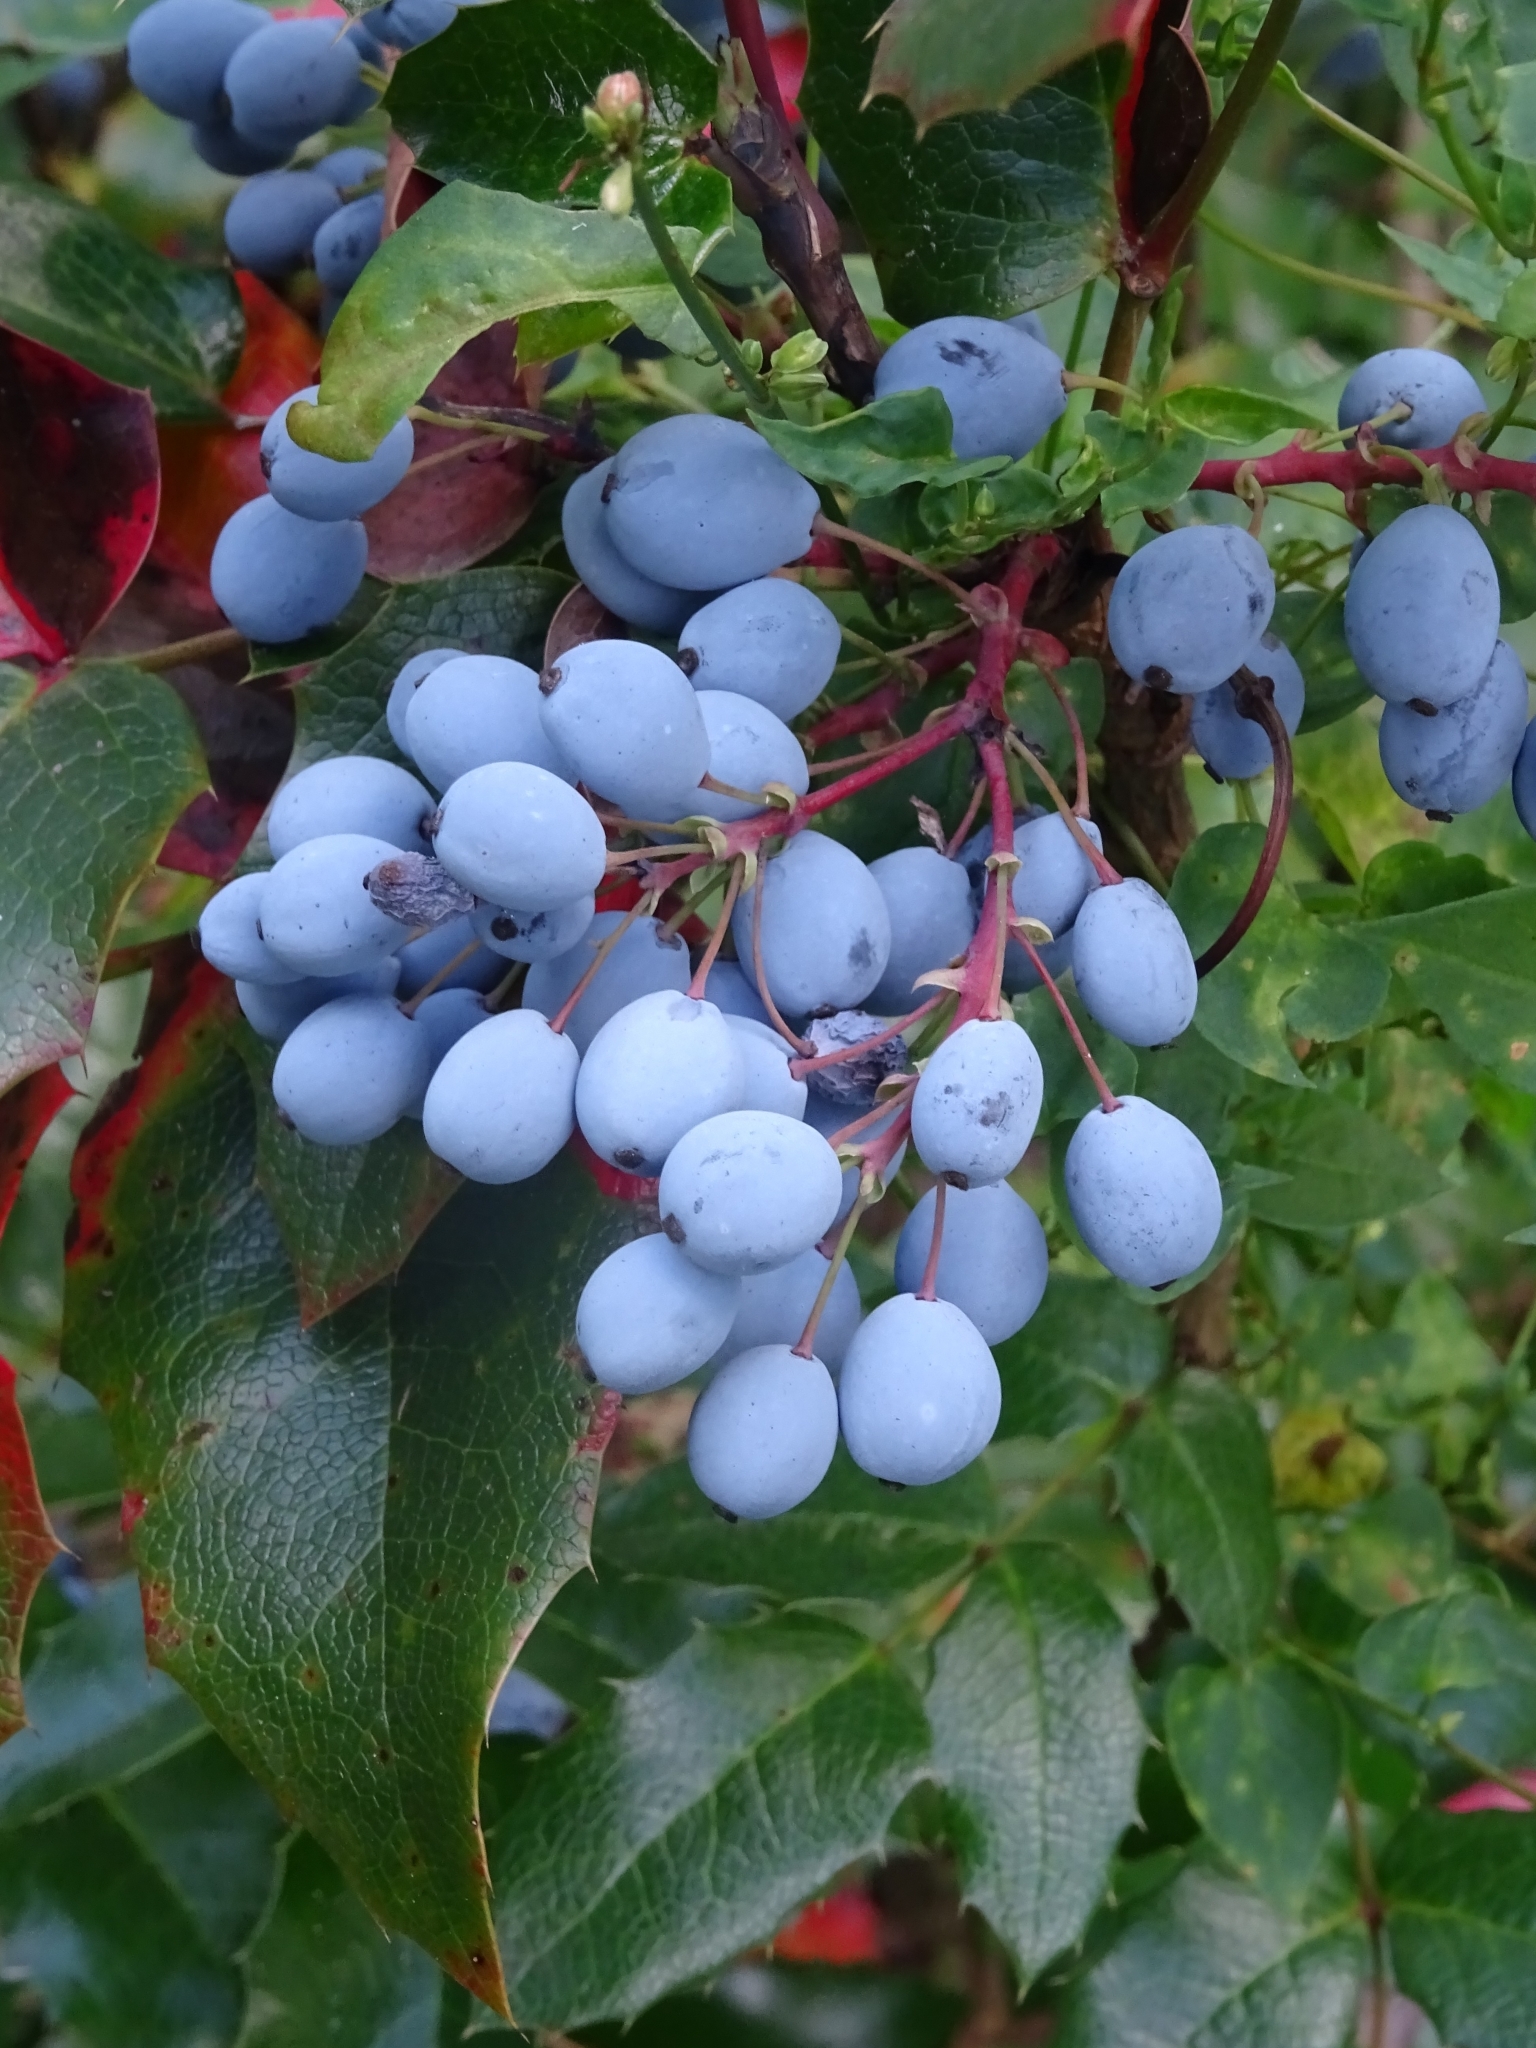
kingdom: Plantae
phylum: Tracheophyta
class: Magnoliopsida
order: Ranunculales
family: Berberidaceae
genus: Mahonia
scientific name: Mahonia aquifolium
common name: Oregon-grape
